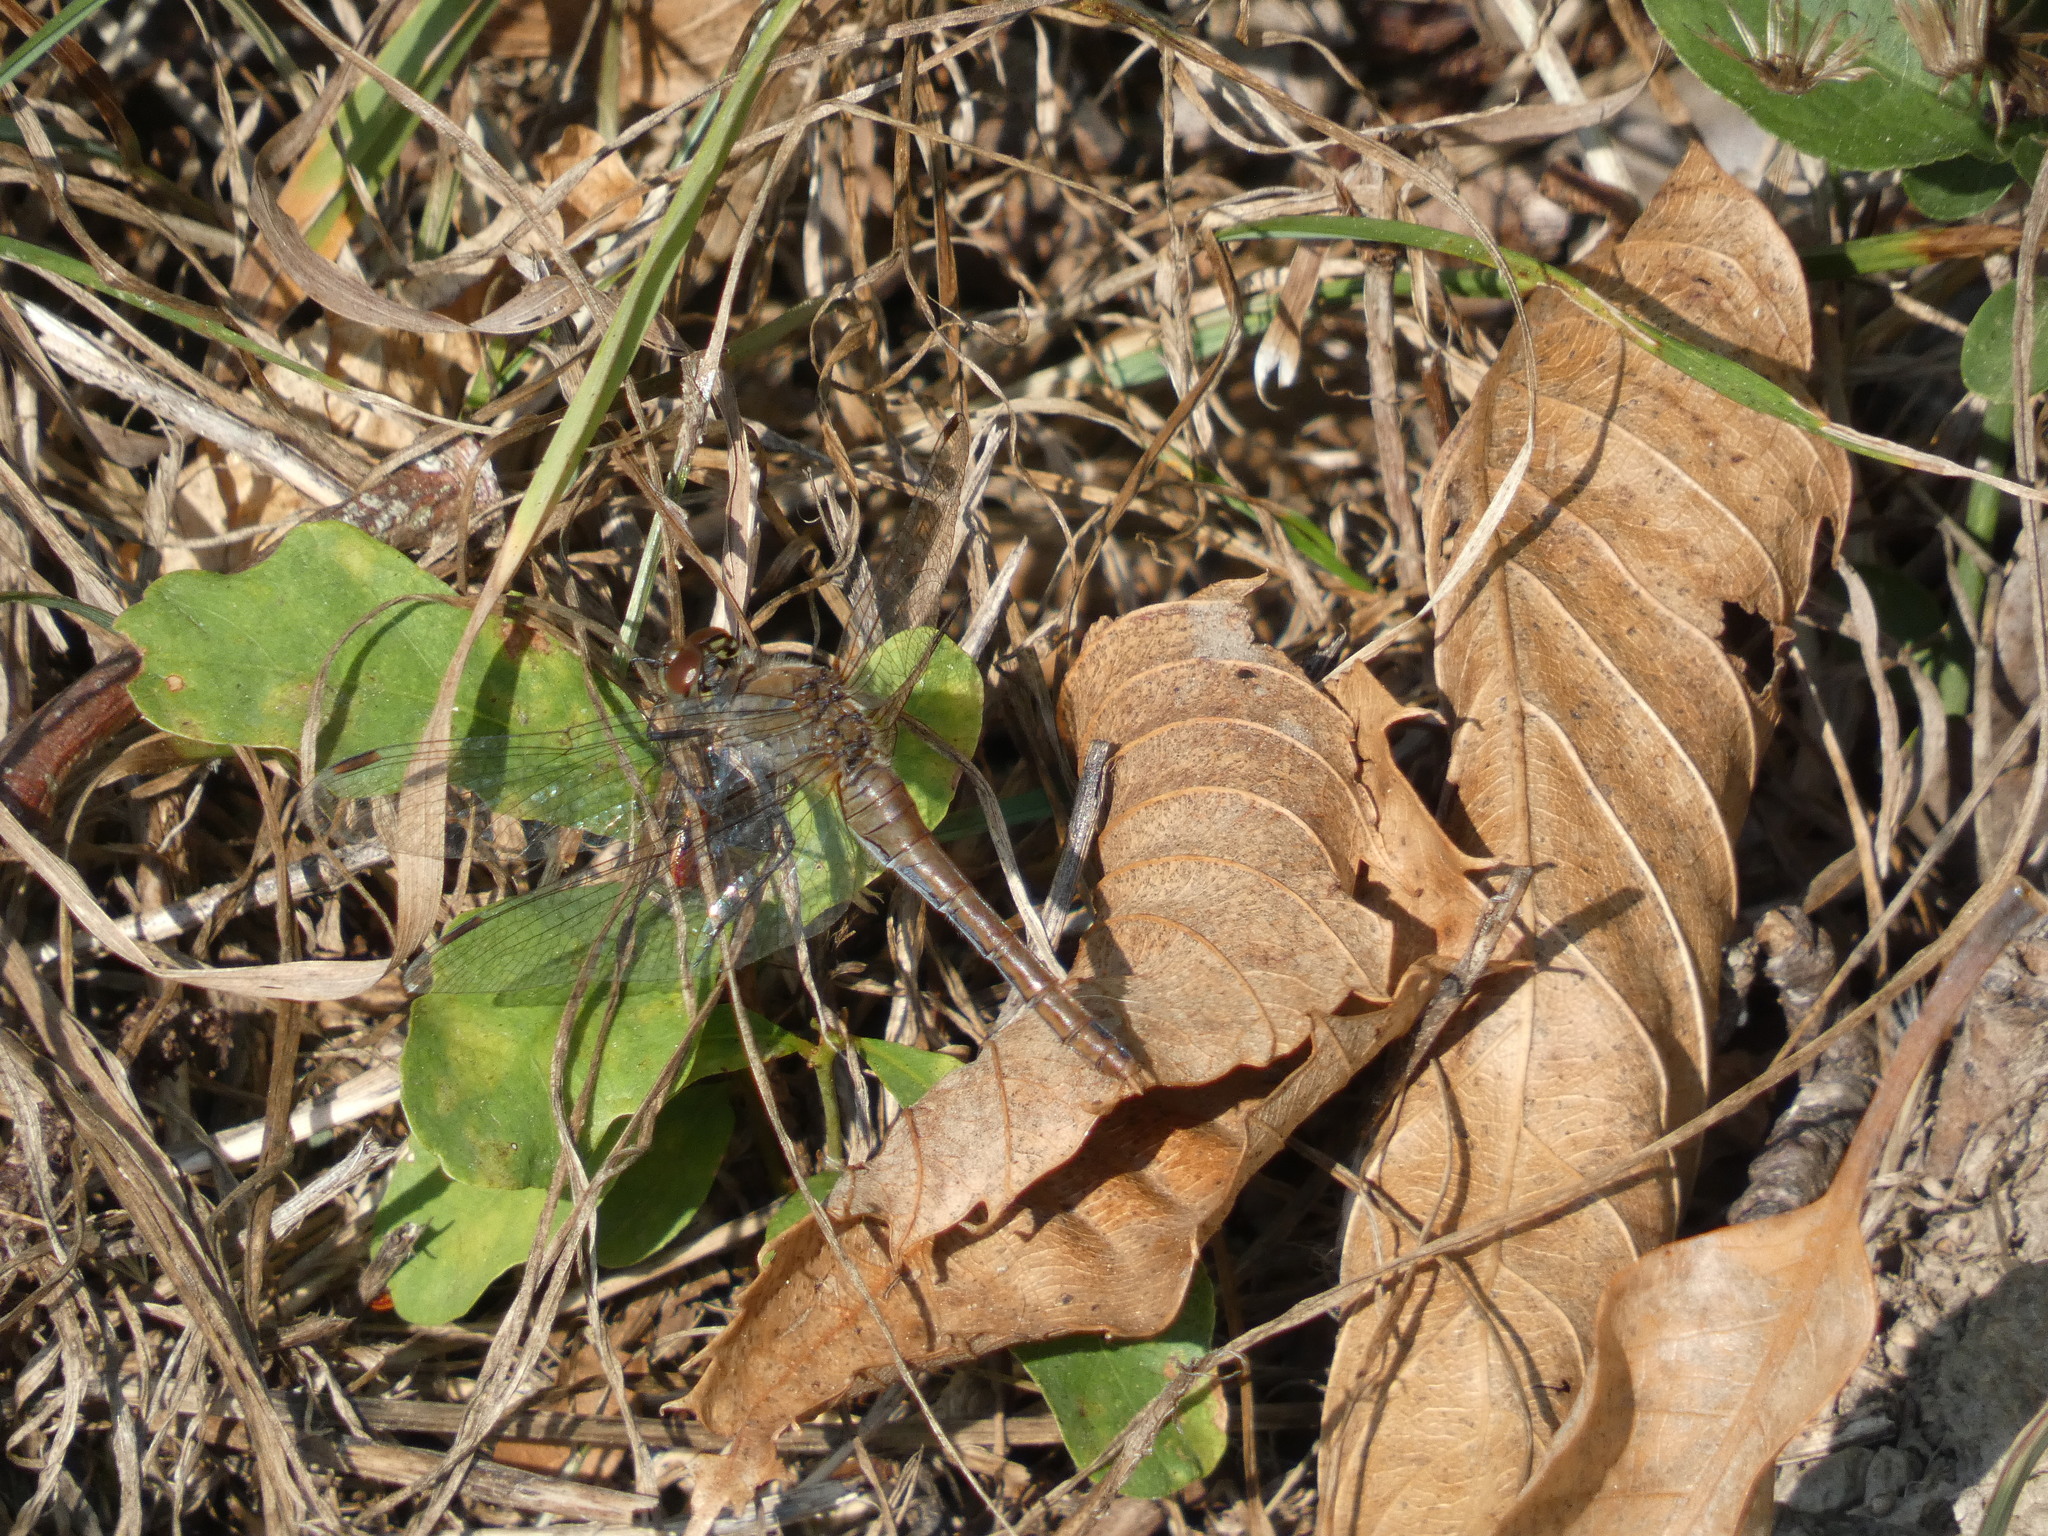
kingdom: Animalia
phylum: Arthropoda
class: Insecta
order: Odonata
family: Libellulidae
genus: Sympetrum
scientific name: Sympetrum sanguineum
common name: Ruddy darter
